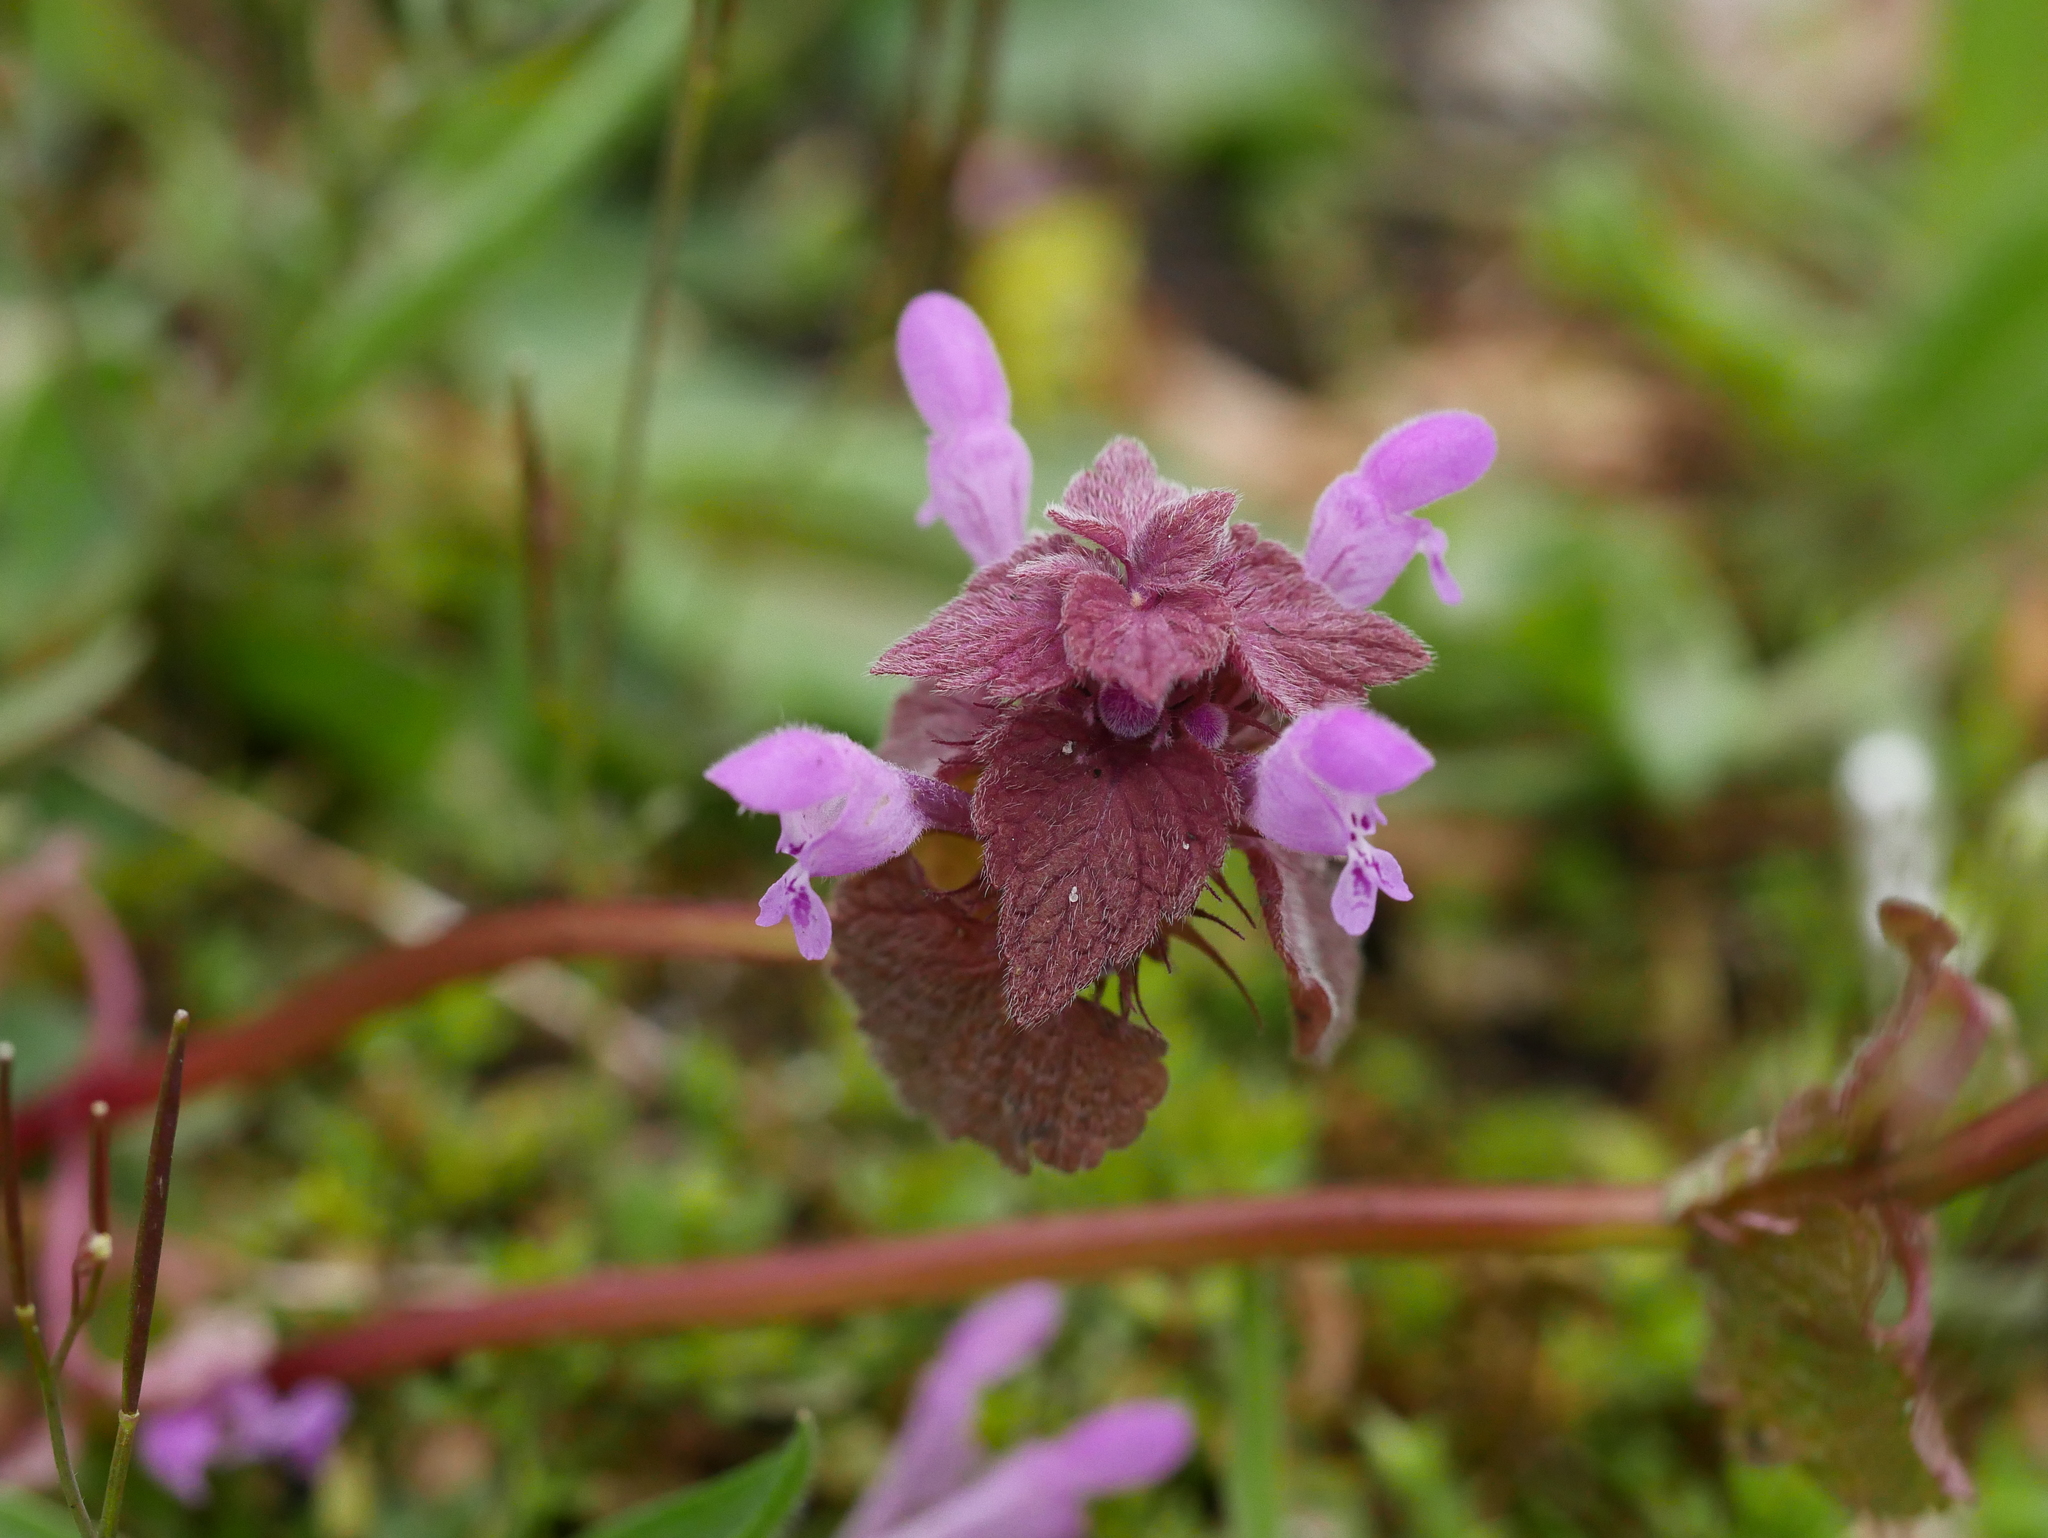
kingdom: Plantae
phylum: Tracheophyta
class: Magnoliopsida
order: Lamiales
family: Lamiaceae
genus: Lamium
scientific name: Lamium purpureum
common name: Red dead-nettle
